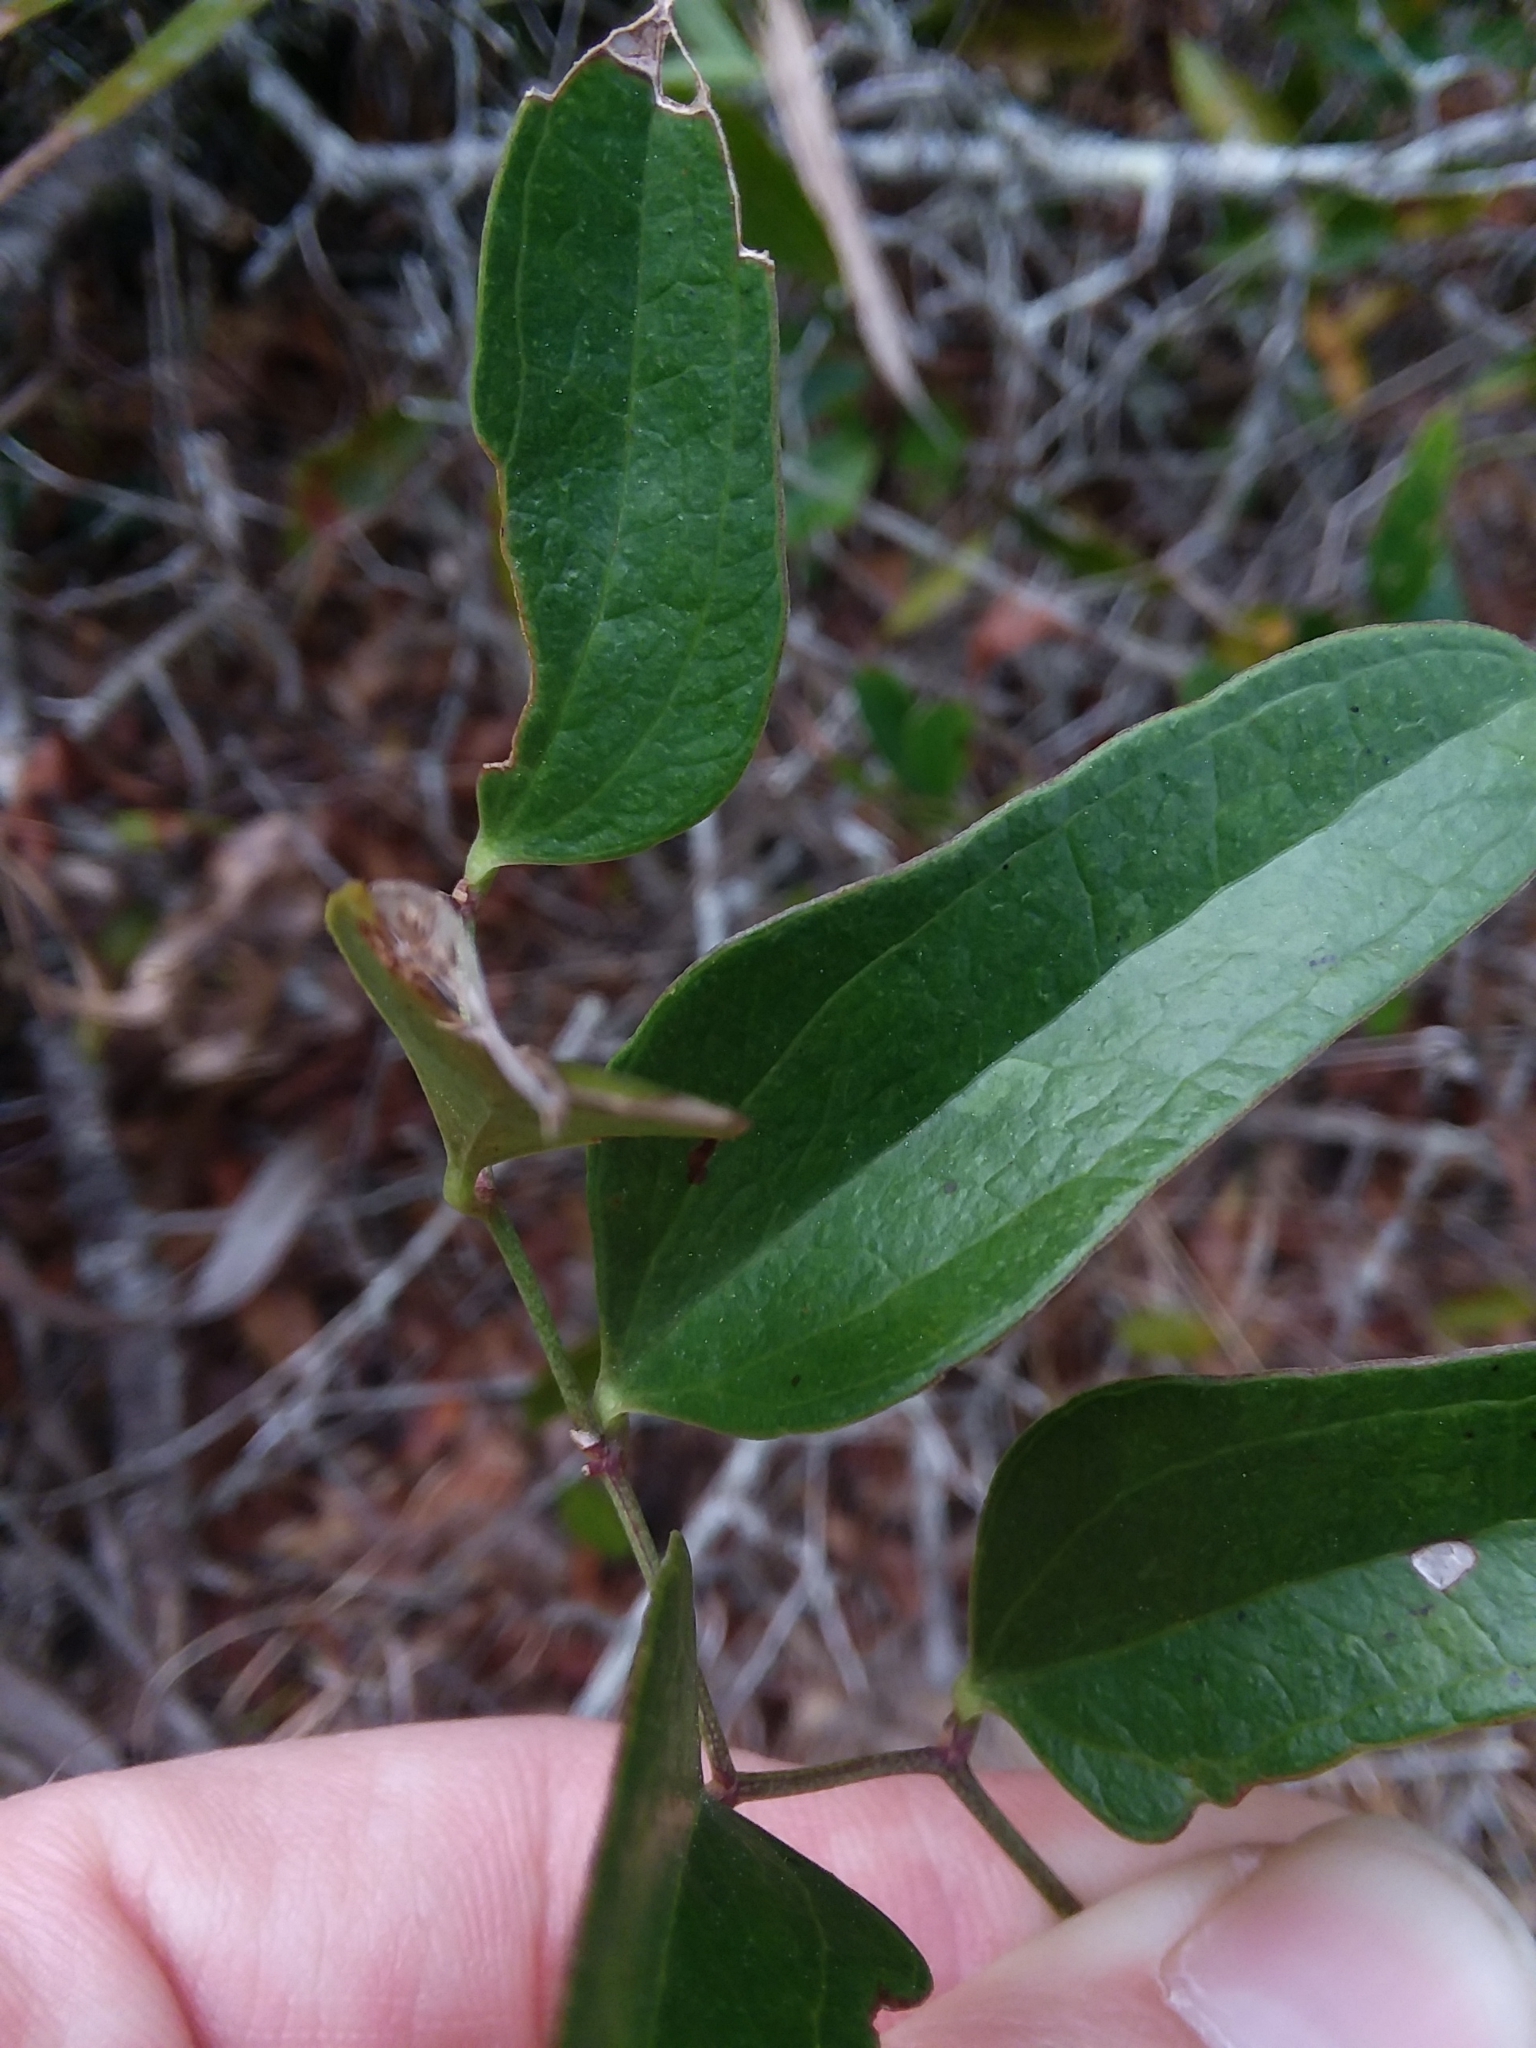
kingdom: Plantae
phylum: Tracheophyta
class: Liliopsida
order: Liliales
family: Smilacaceae
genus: Smilax
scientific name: Smilax auriculata
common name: Wild bamboo
